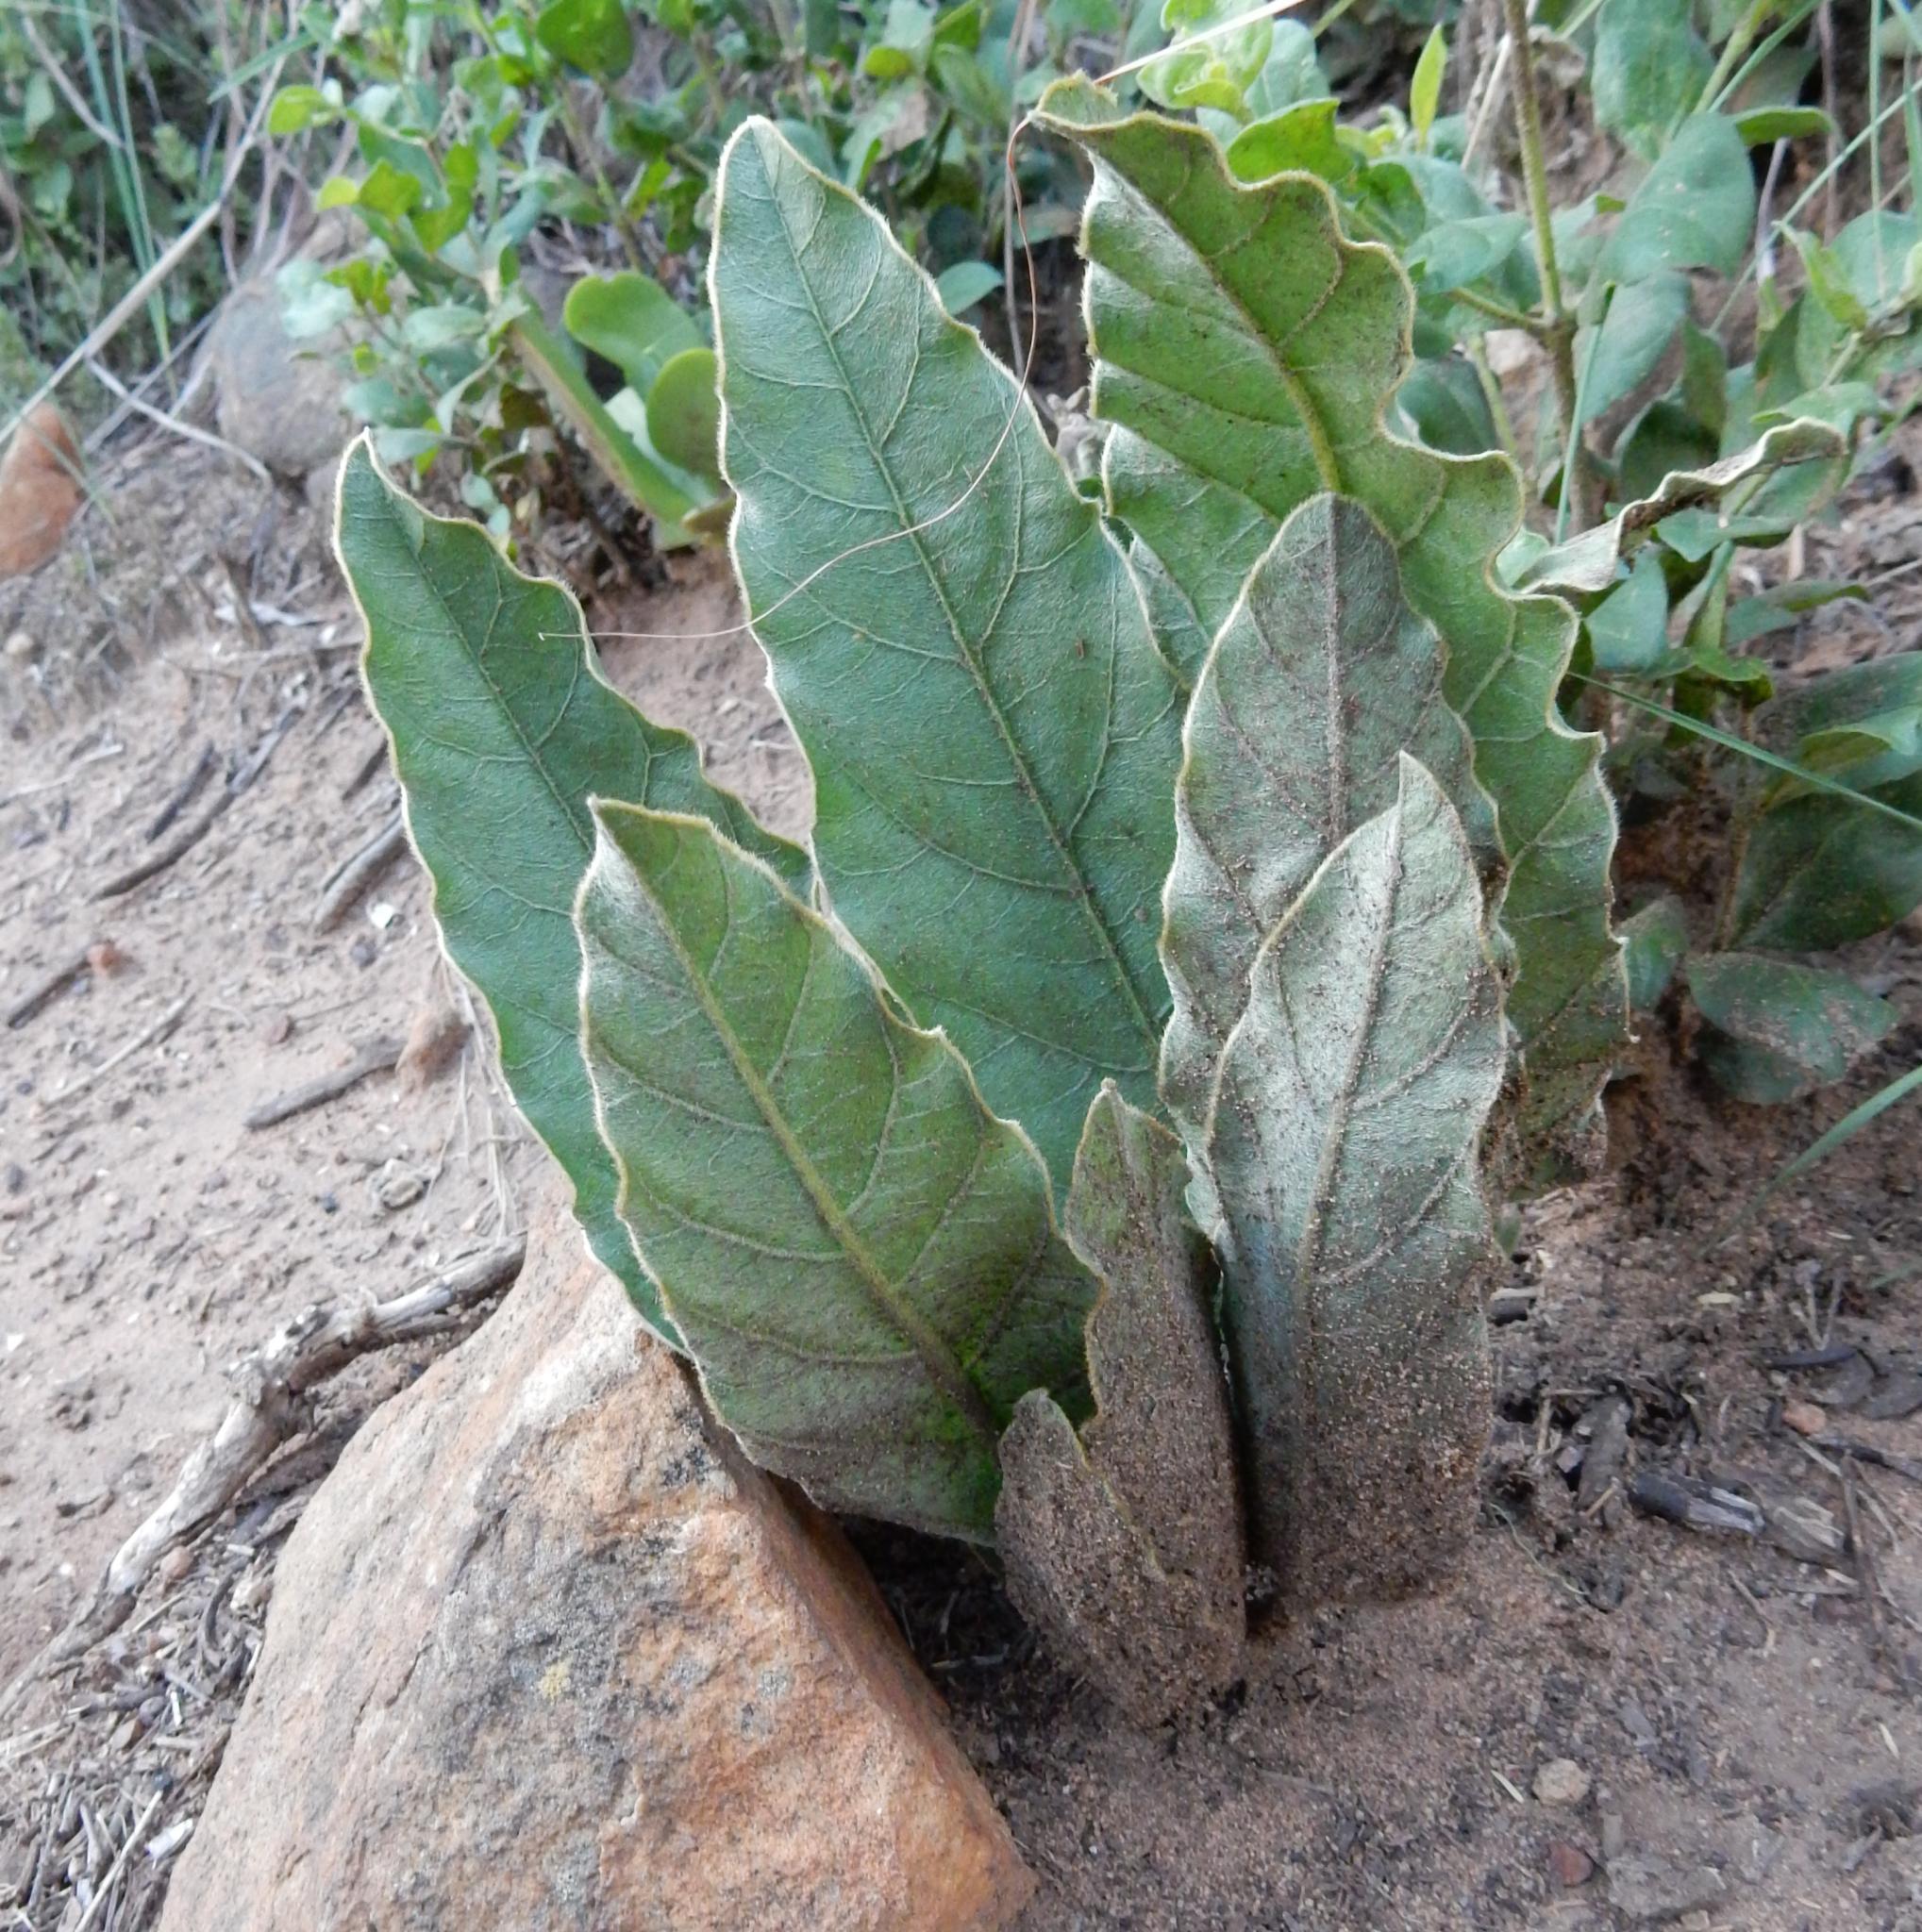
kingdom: Plantae
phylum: Tracheophyta
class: Magnoliopsida
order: Solanales
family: Convolvulaceae
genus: Ipomoea
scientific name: Ipomoea ommanneyi
